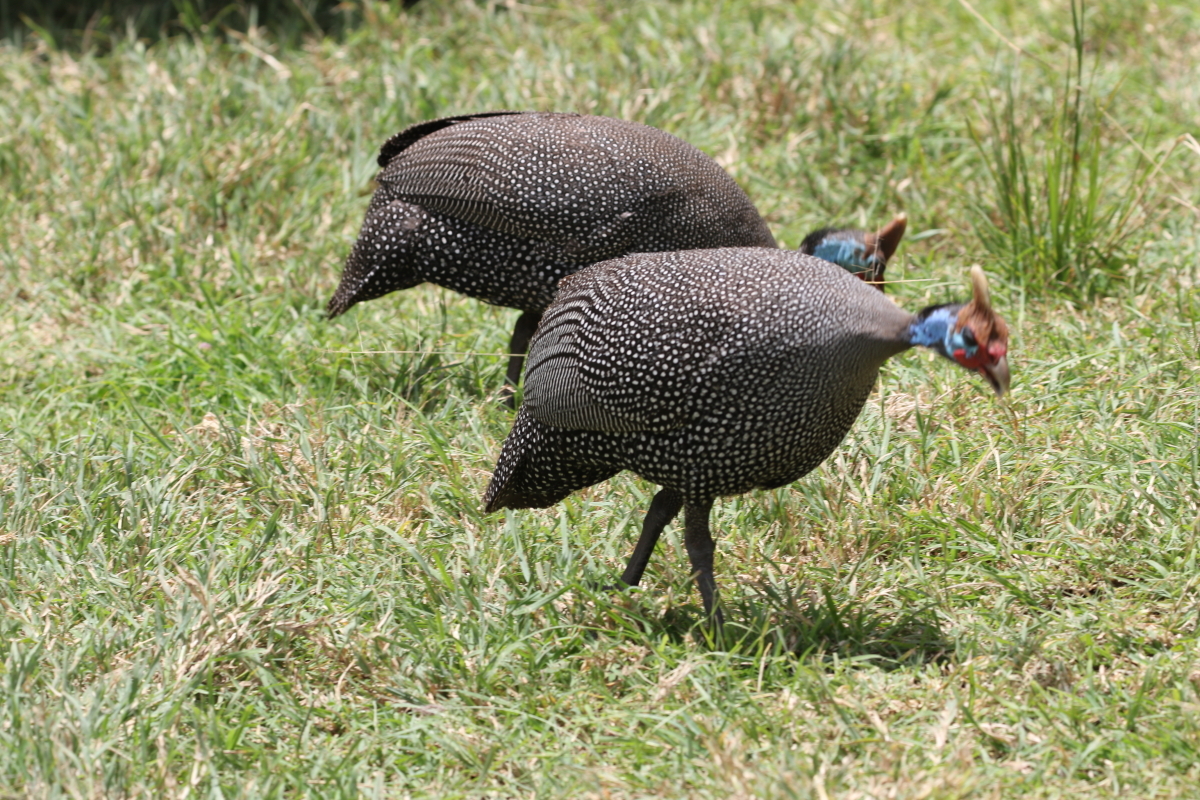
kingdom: Animalia
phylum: Chordata
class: Aves
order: Galliformes
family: Numididae
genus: Numida
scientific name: Numida meleagris
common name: Helmeted guineafowl
